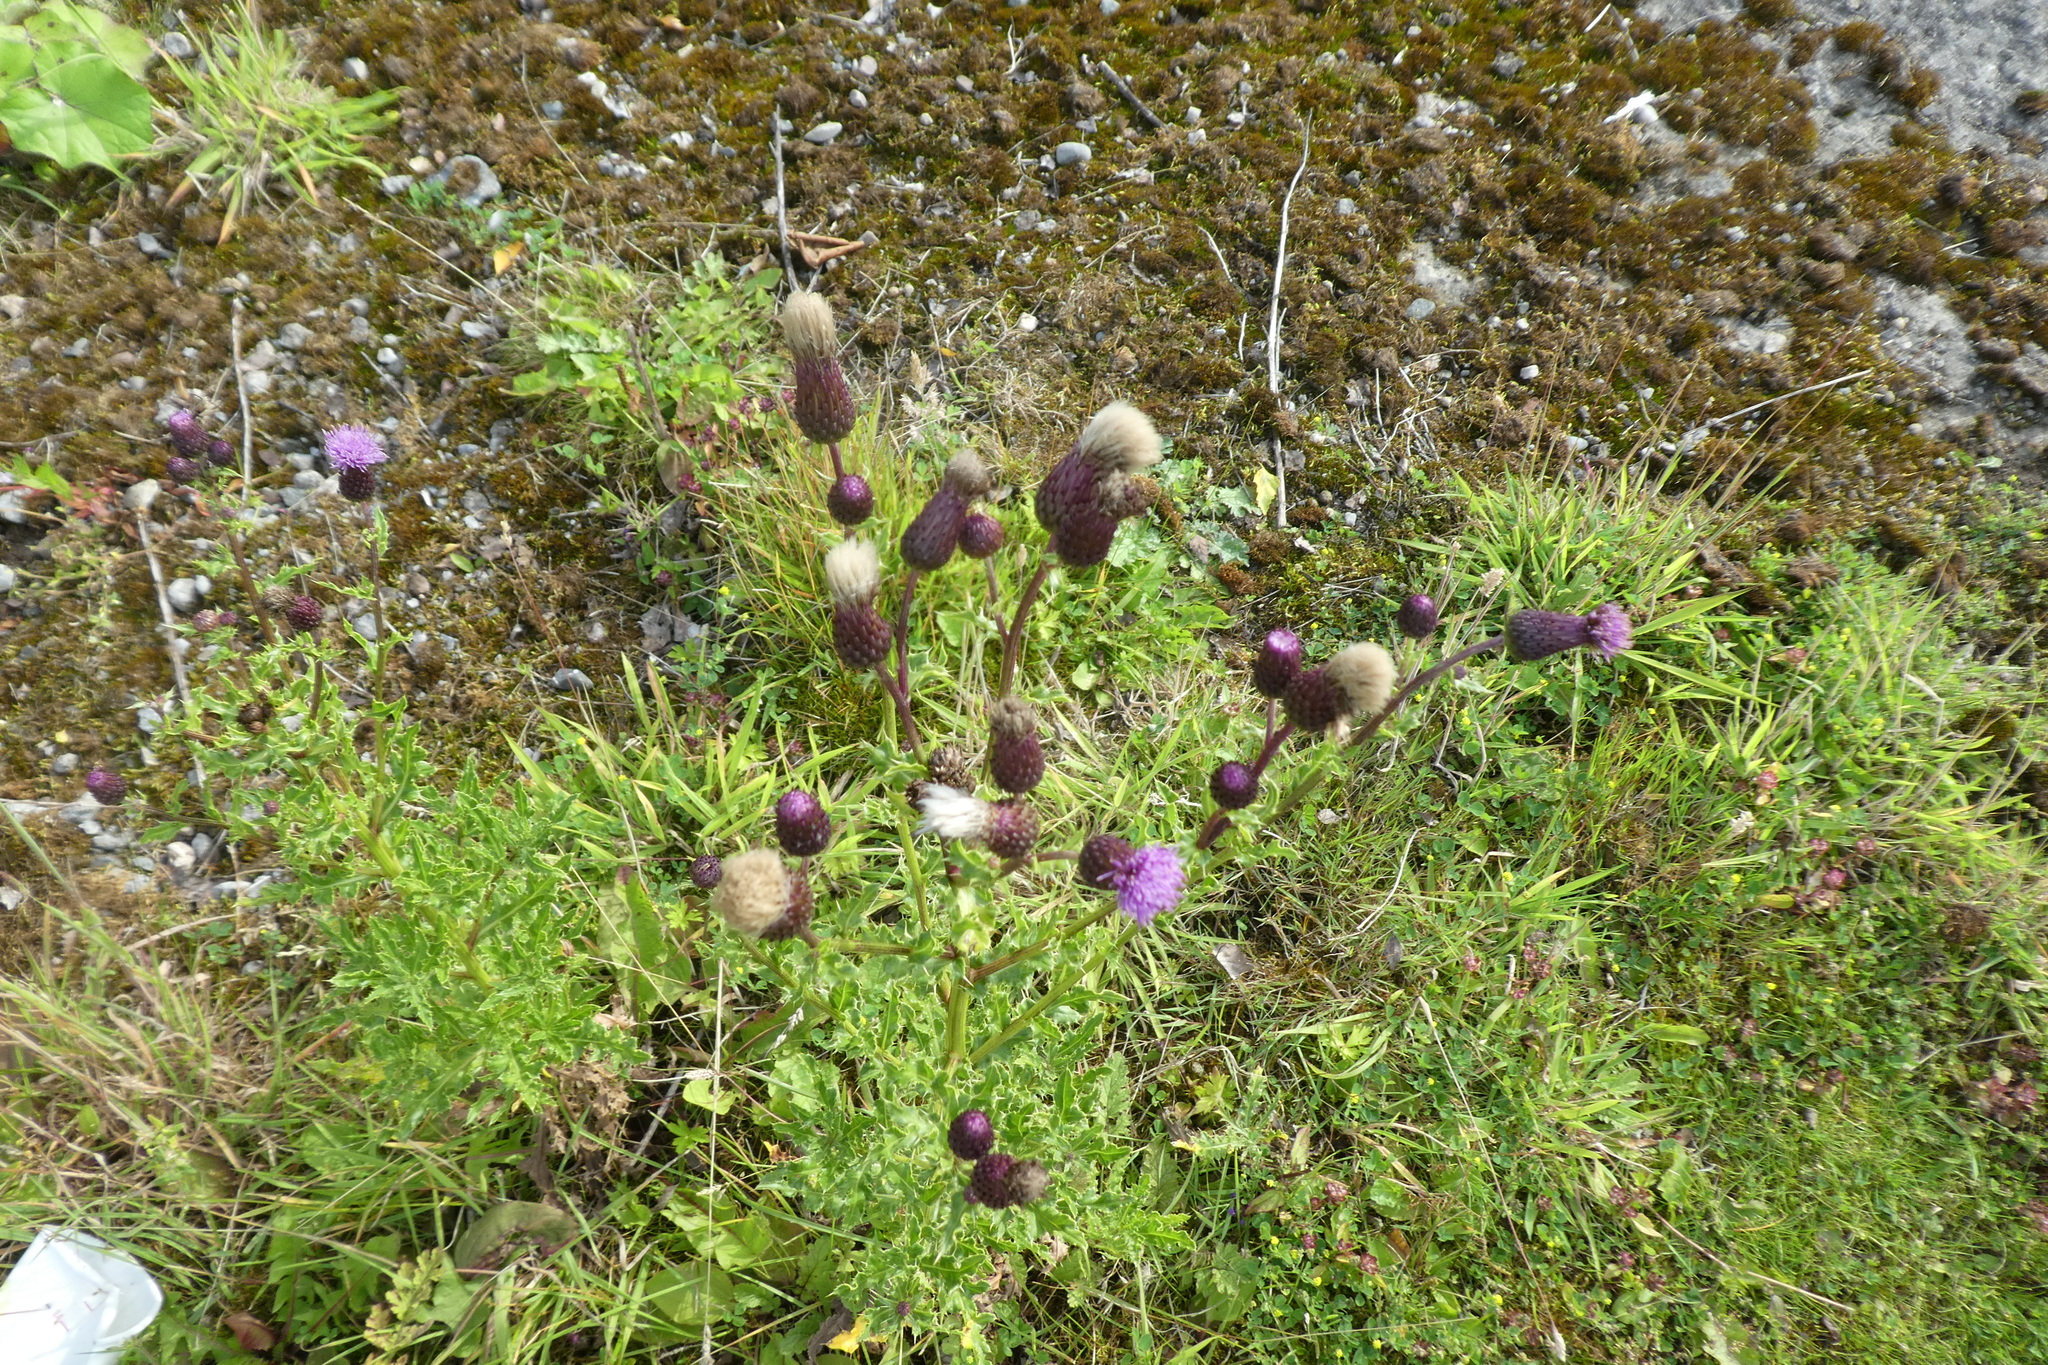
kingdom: Plantae
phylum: Tracheophyta
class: Magnoliopsida
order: Asterales
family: Asteraceae
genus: Cirsium
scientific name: Cirsium arvense
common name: Creeping thistle
